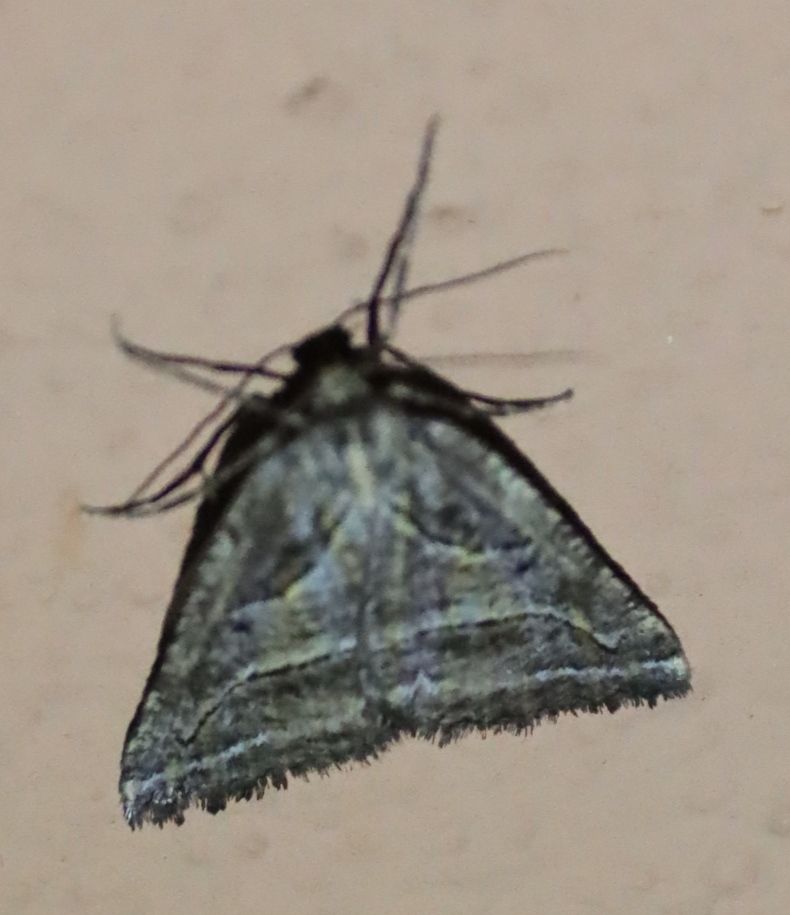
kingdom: Animalia
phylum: Arthropoda
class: Insecta
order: Lepidoptera
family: Geometridae
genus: Hypotephrina
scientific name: Hypotephrina exmotaria
